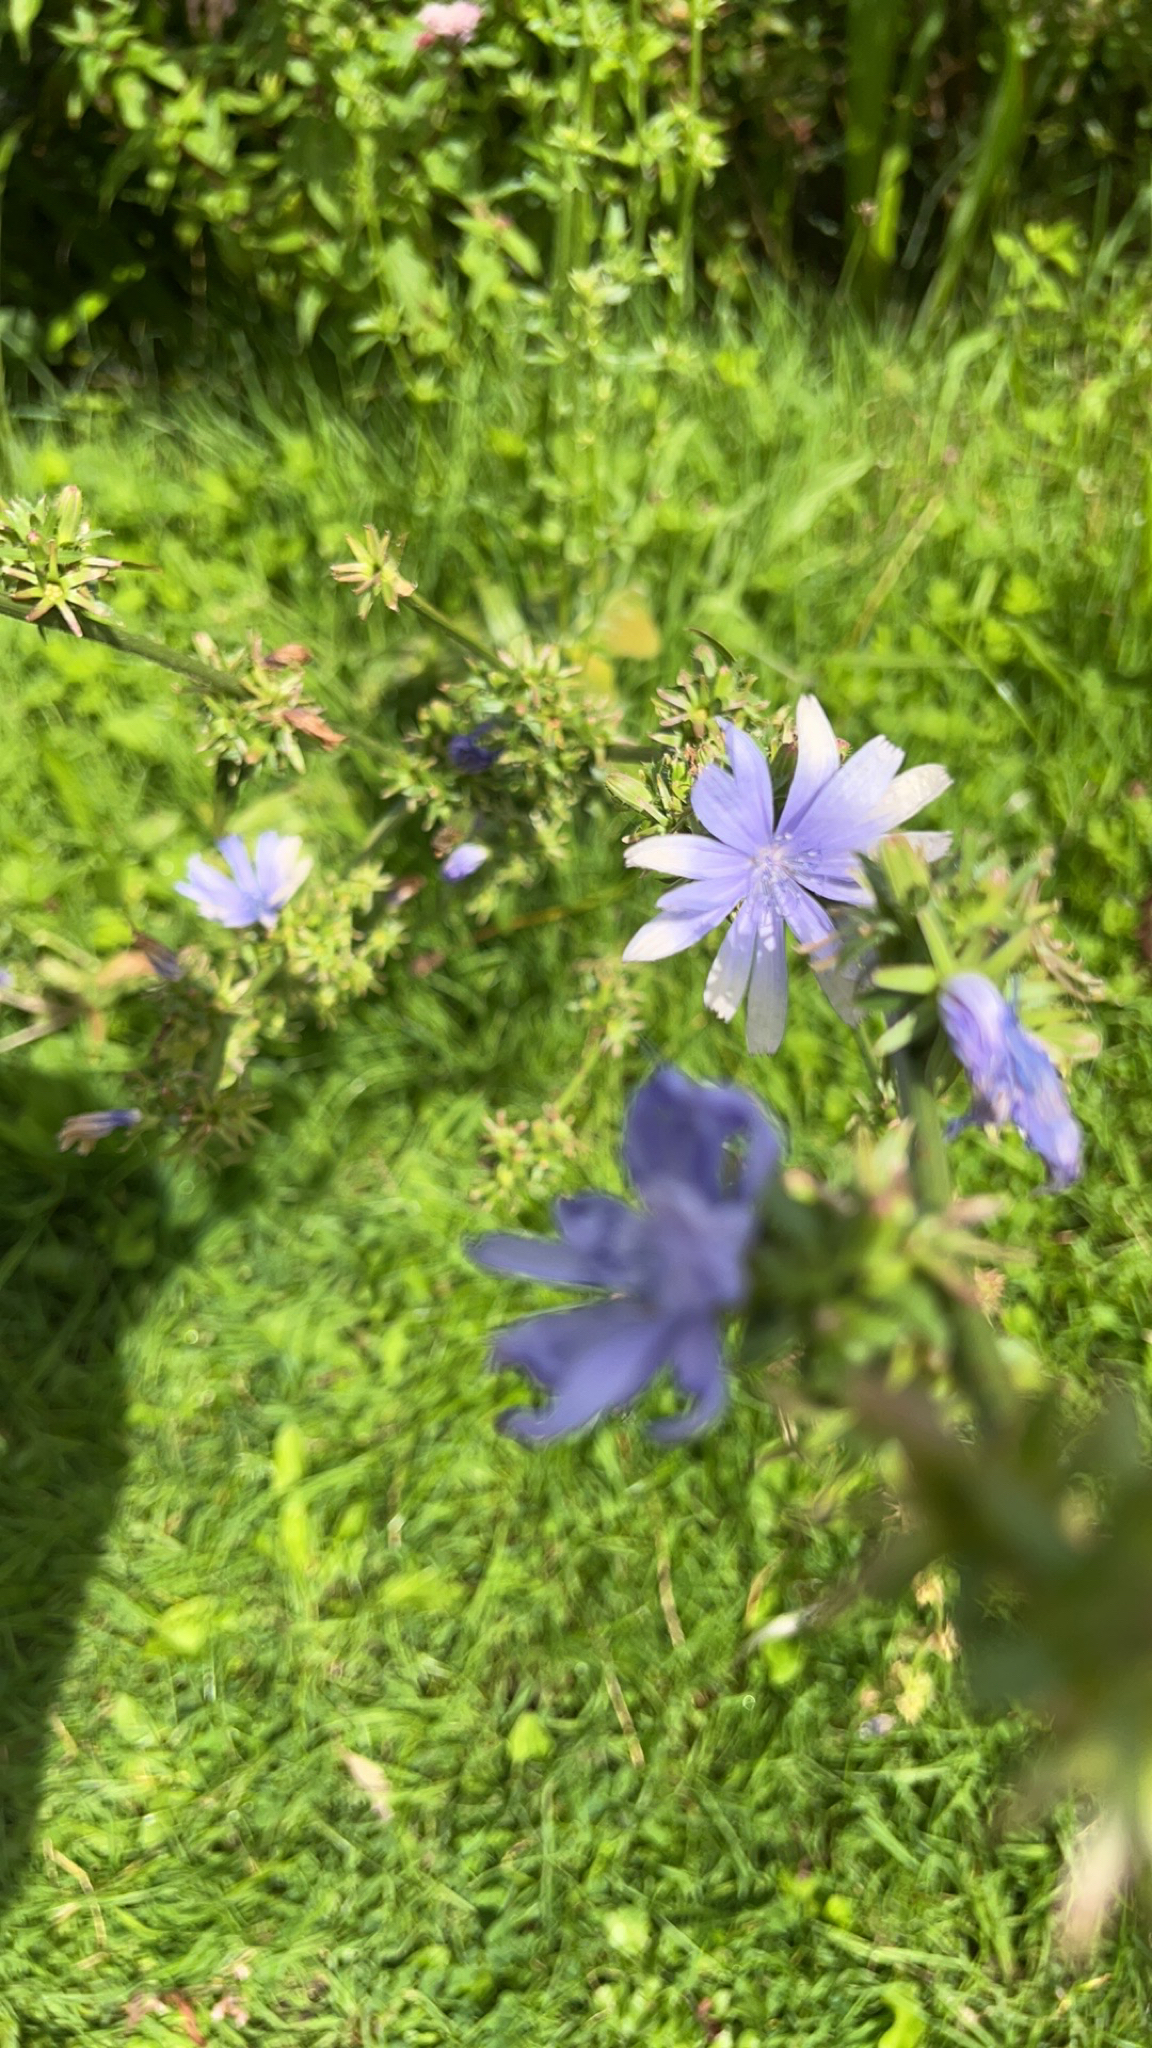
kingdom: Plantae
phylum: Tracheophyta
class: Magnoliopsida
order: Asterales
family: Asteraceae
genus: Cichorium
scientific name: Cichorium intybus
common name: Chicory
